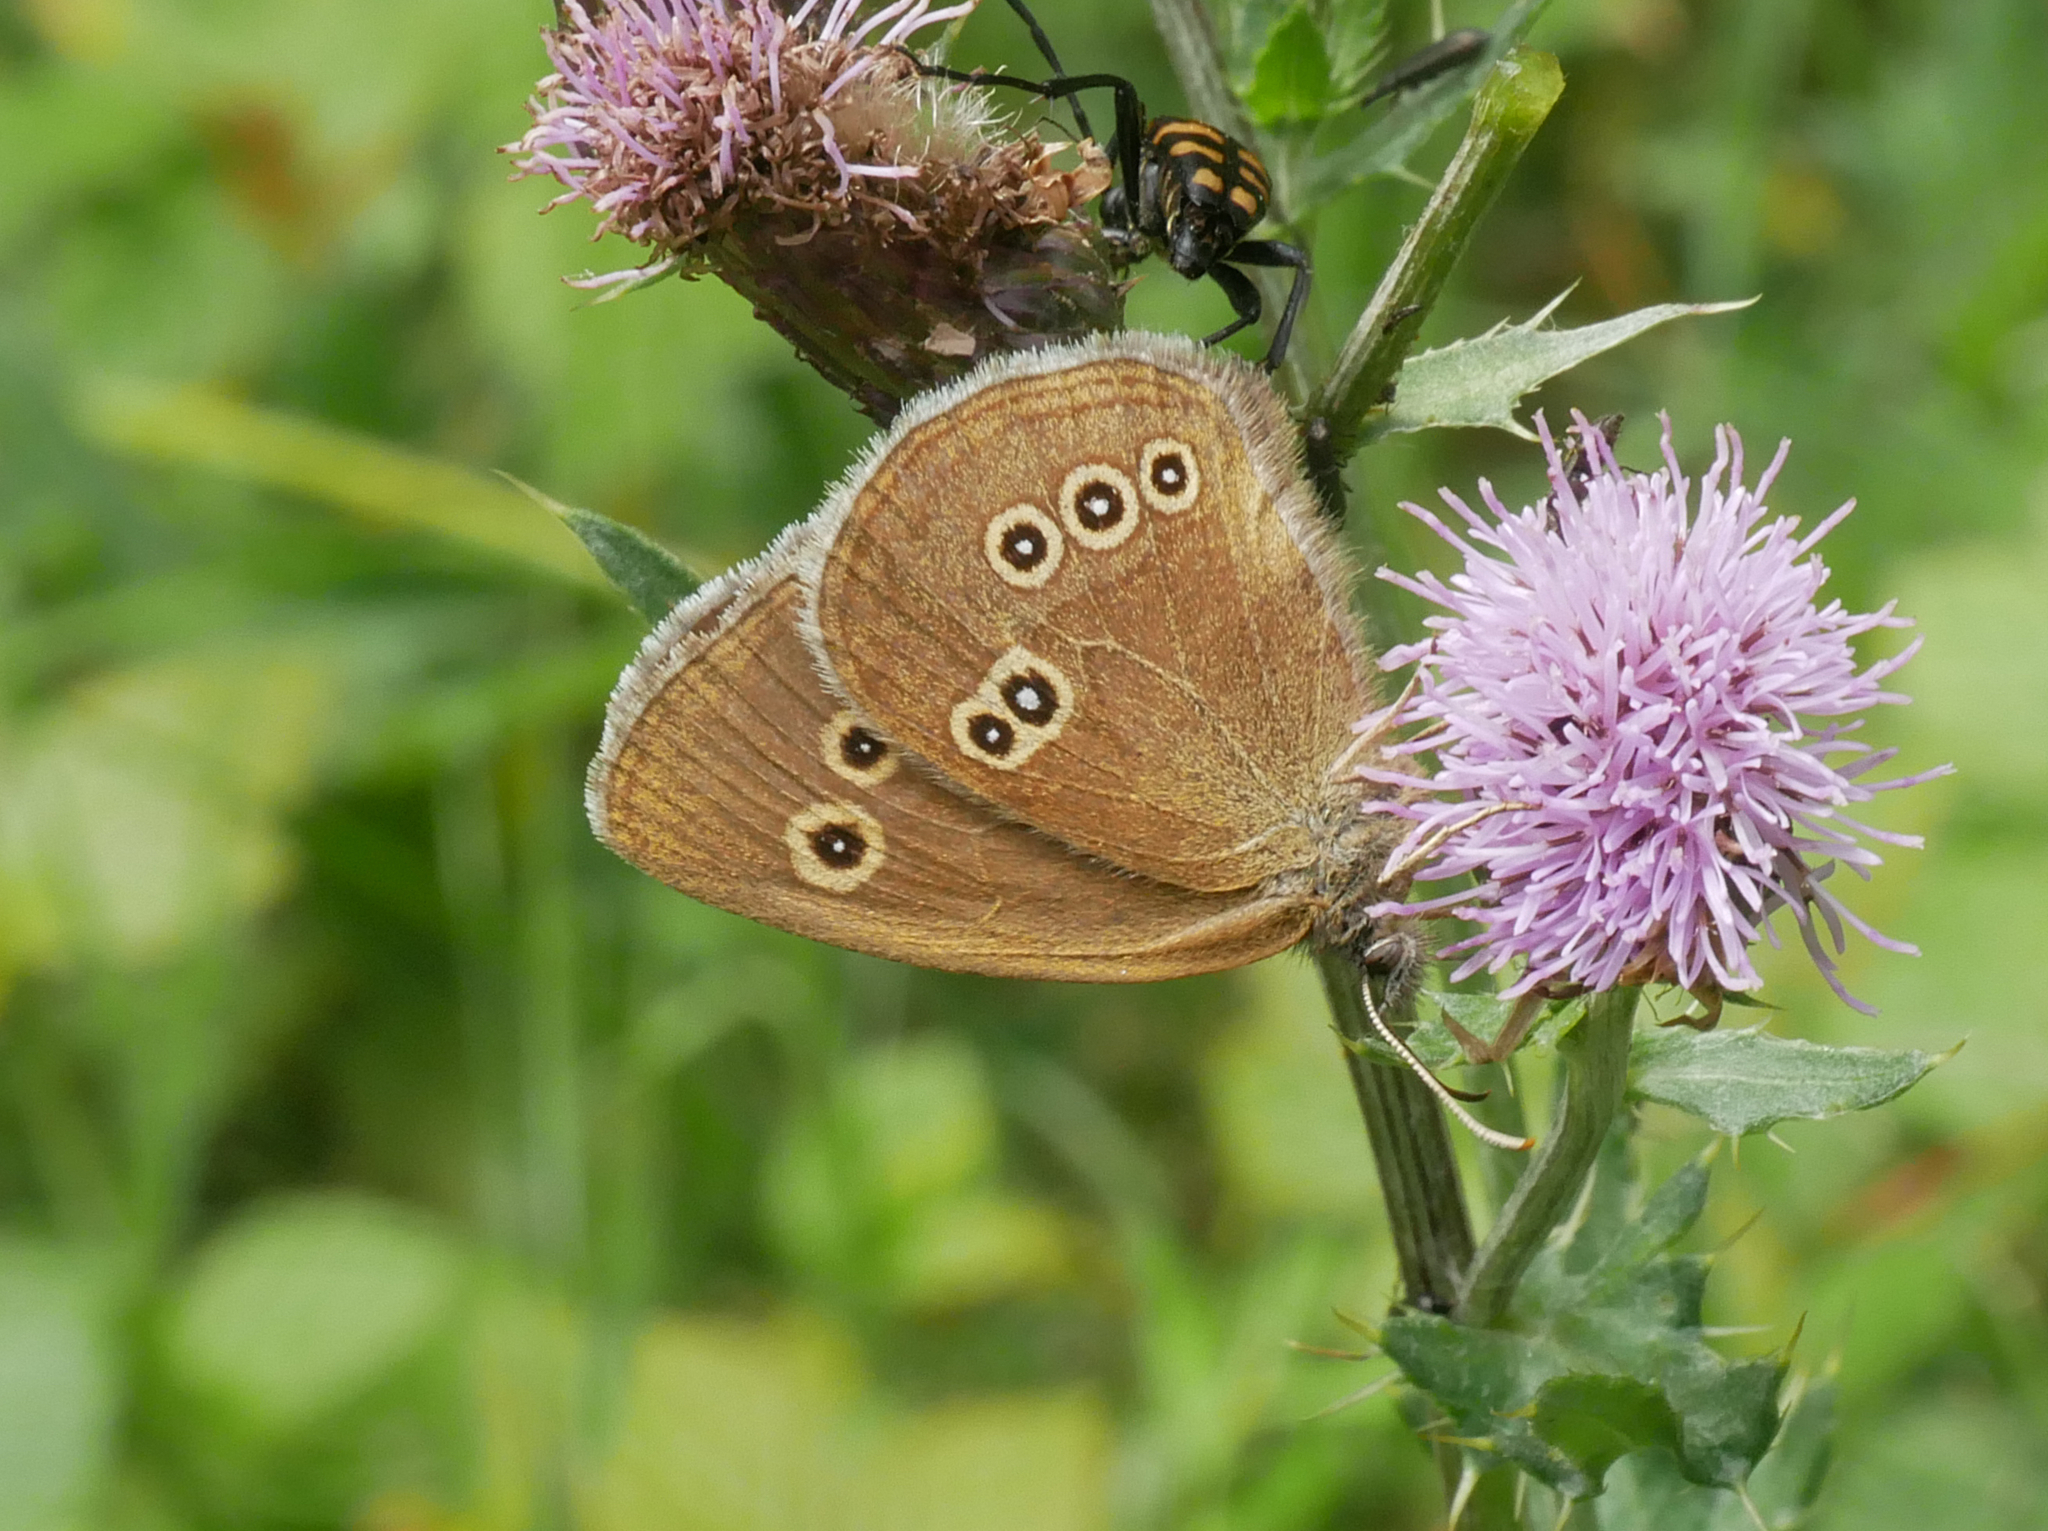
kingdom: Animalia
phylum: Arthropoda
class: Insecta
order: Lepidoptera
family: Nymphalidae
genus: Aphantopus
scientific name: Aphantopus hyperantus
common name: Ringlet
